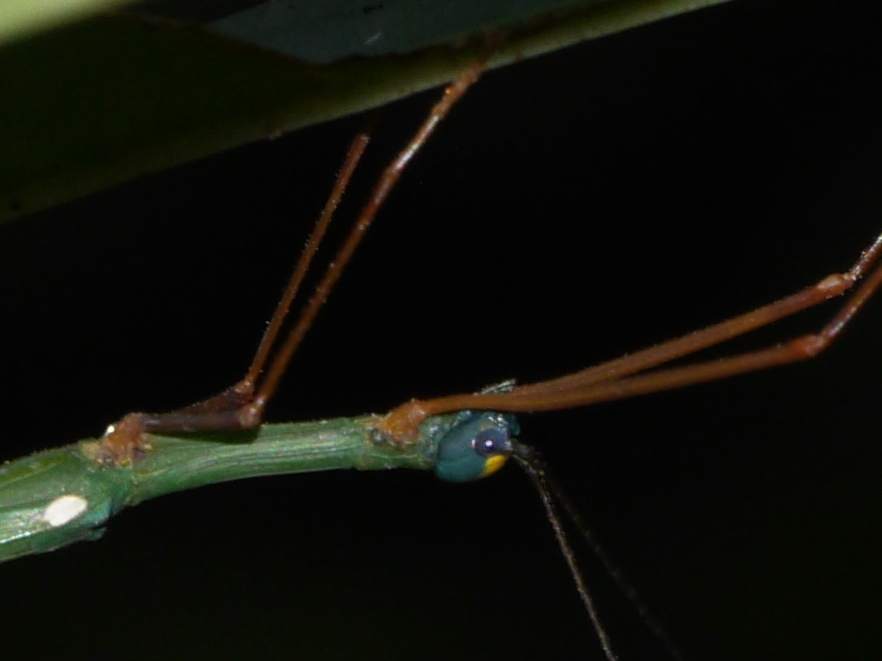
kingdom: Animalia
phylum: Arthropoda
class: Insecta
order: Phasmida
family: Lonchodidae
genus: Marmessoidea
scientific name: Marmessoidea sumatrensis
